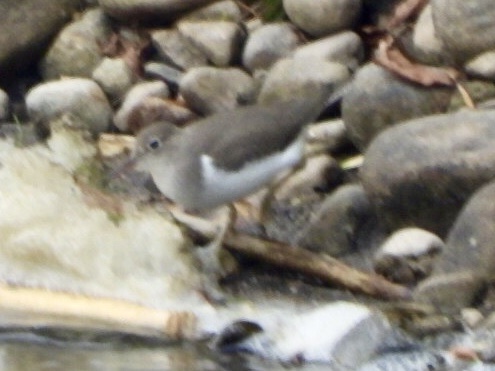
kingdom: Animalia
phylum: Chordata
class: Aves
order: Charadriiformes
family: Scolopacidae
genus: Actitis
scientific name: Actitis macularius
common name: Spotted sandpiper
